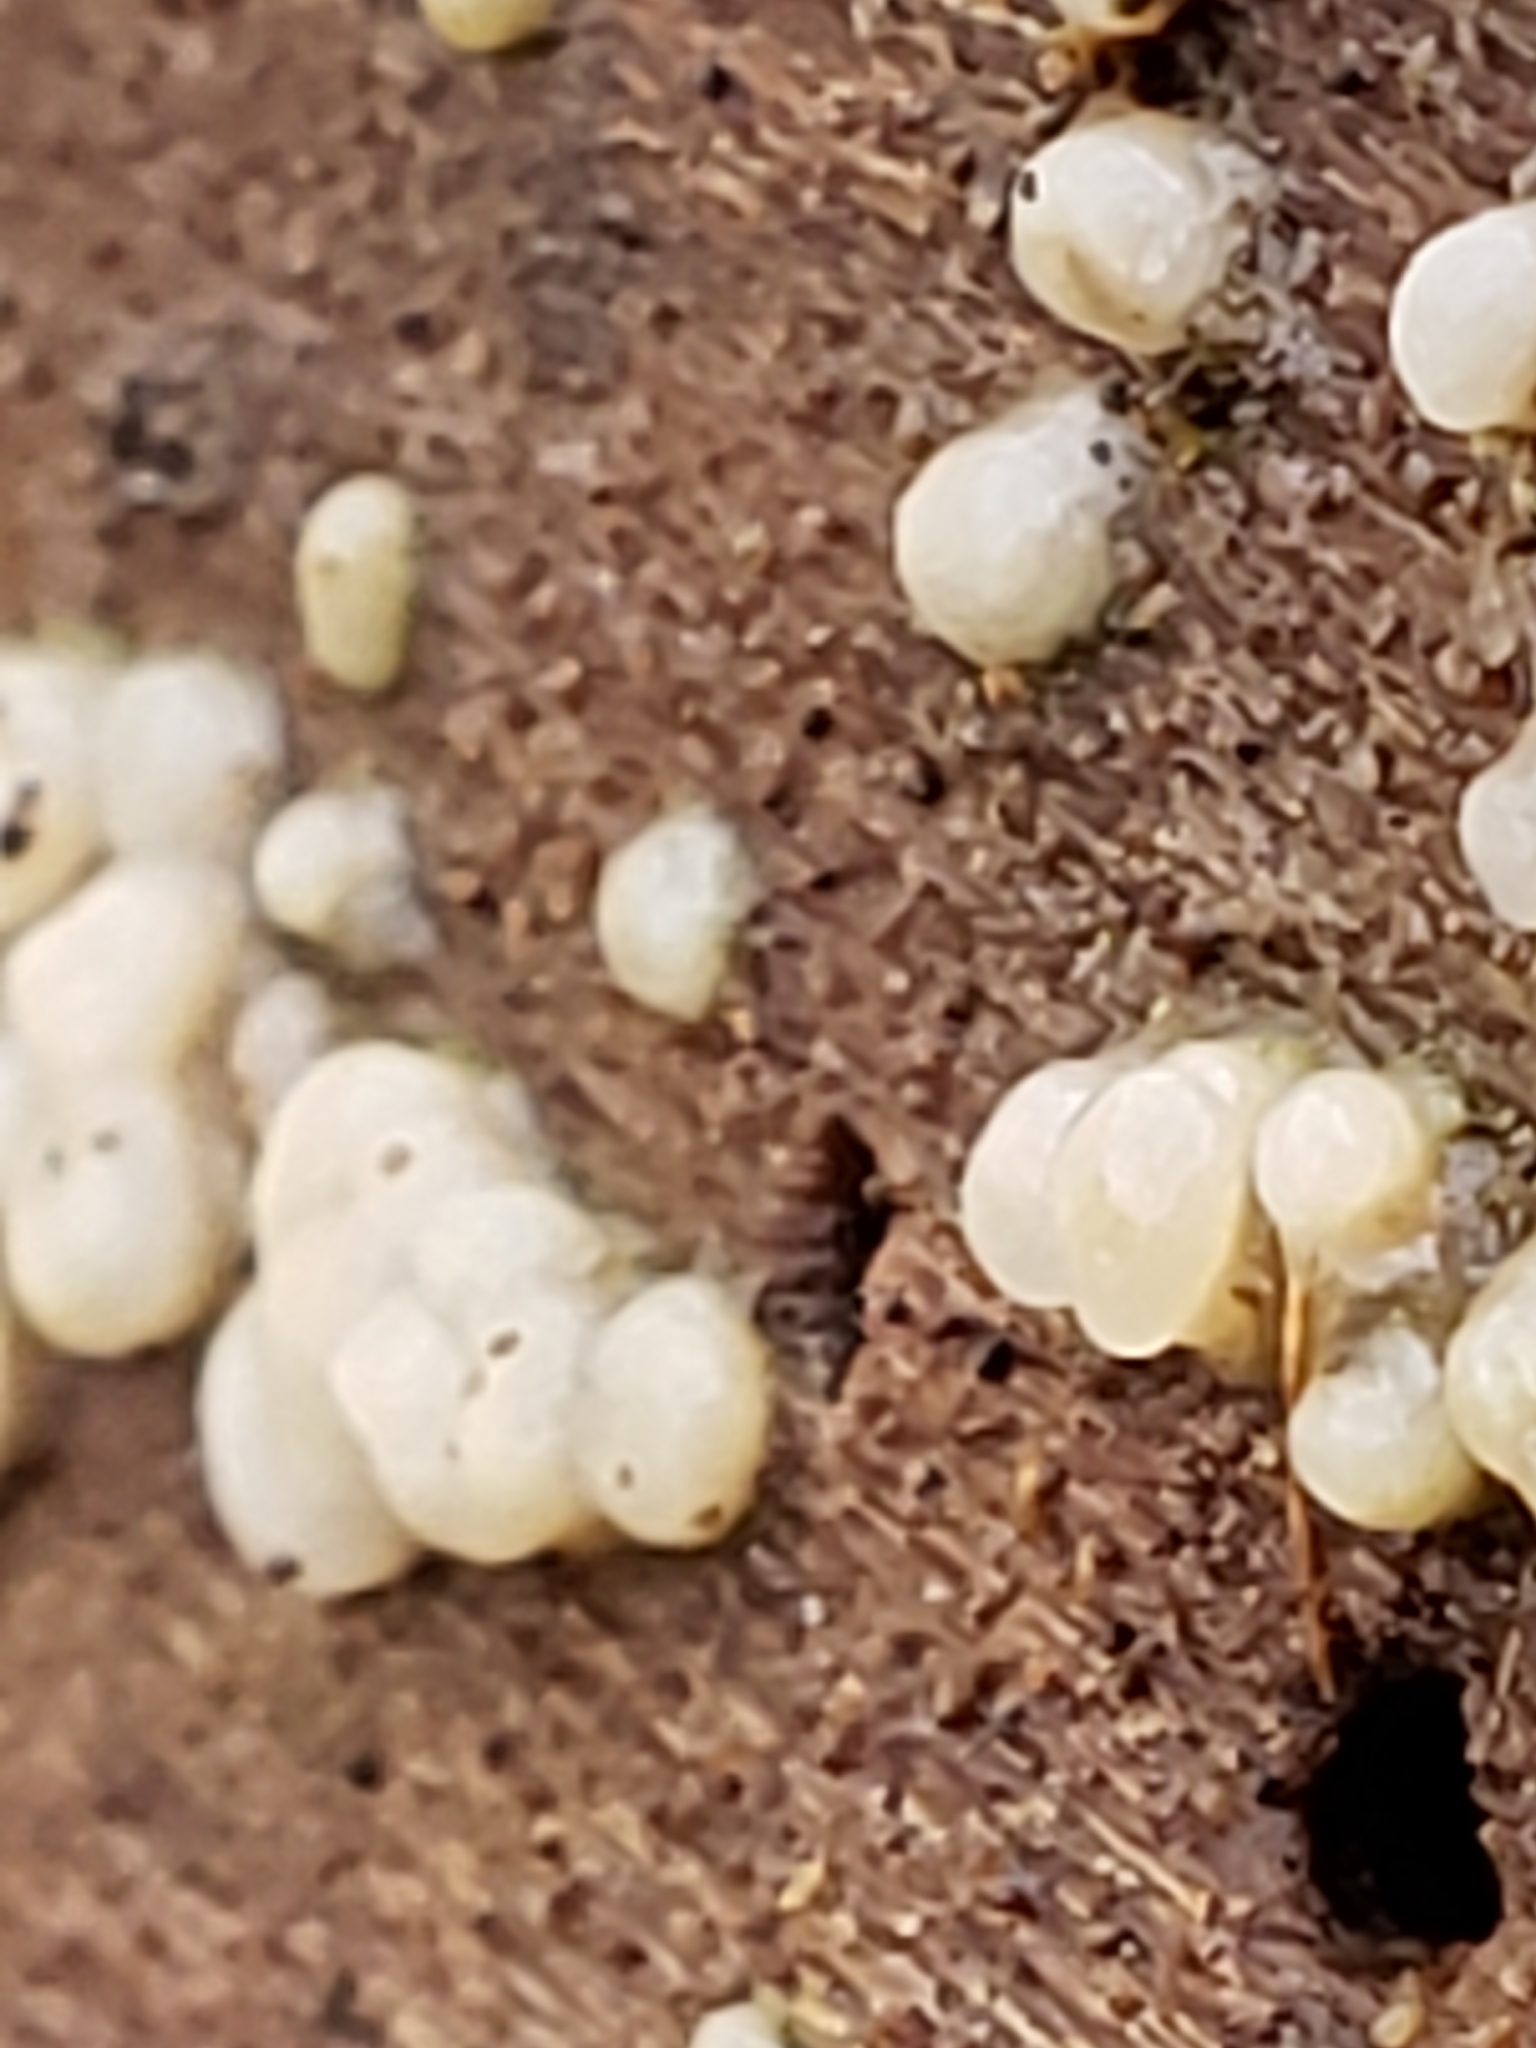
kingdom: Fungi
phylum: Basidiomycota
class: Atractiellomycetes
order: Atractiellales
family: Phleogenaceae
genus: Helicogloea
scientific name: Helicogloea compressa
